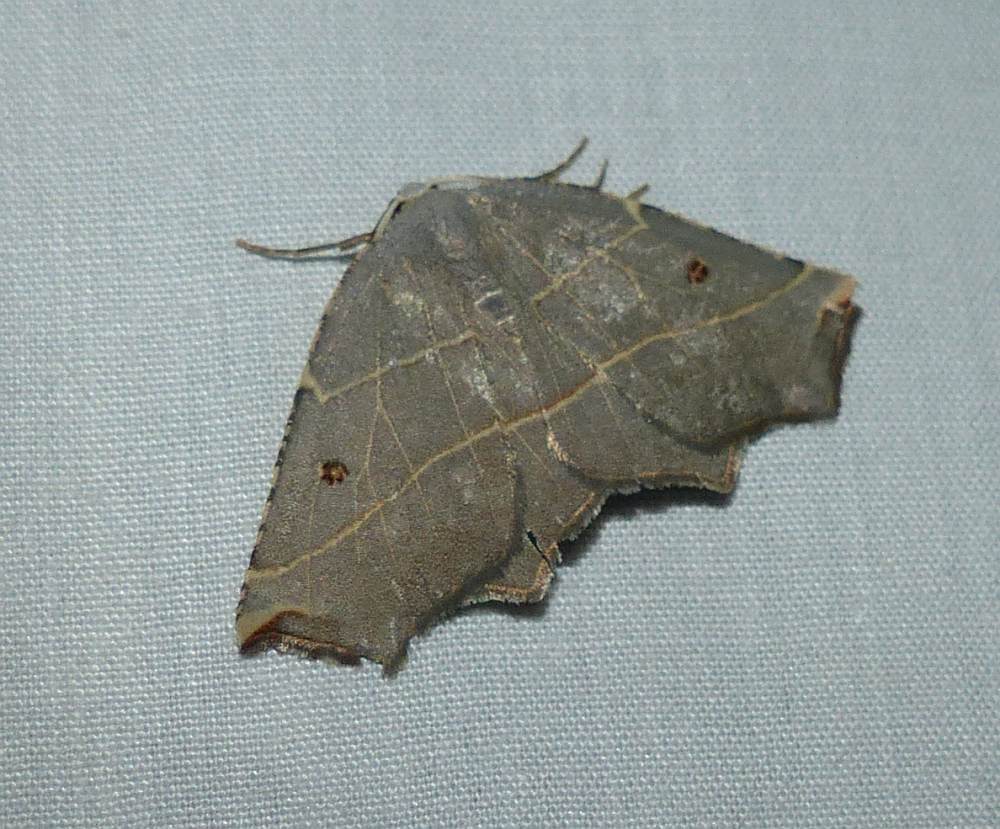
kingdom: Animalia
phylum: Arthropoda
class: Insecta
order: Lepidoptera
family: Geometridae
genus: Metanema
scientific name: Metanema inatomaria
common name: Pale metanema
